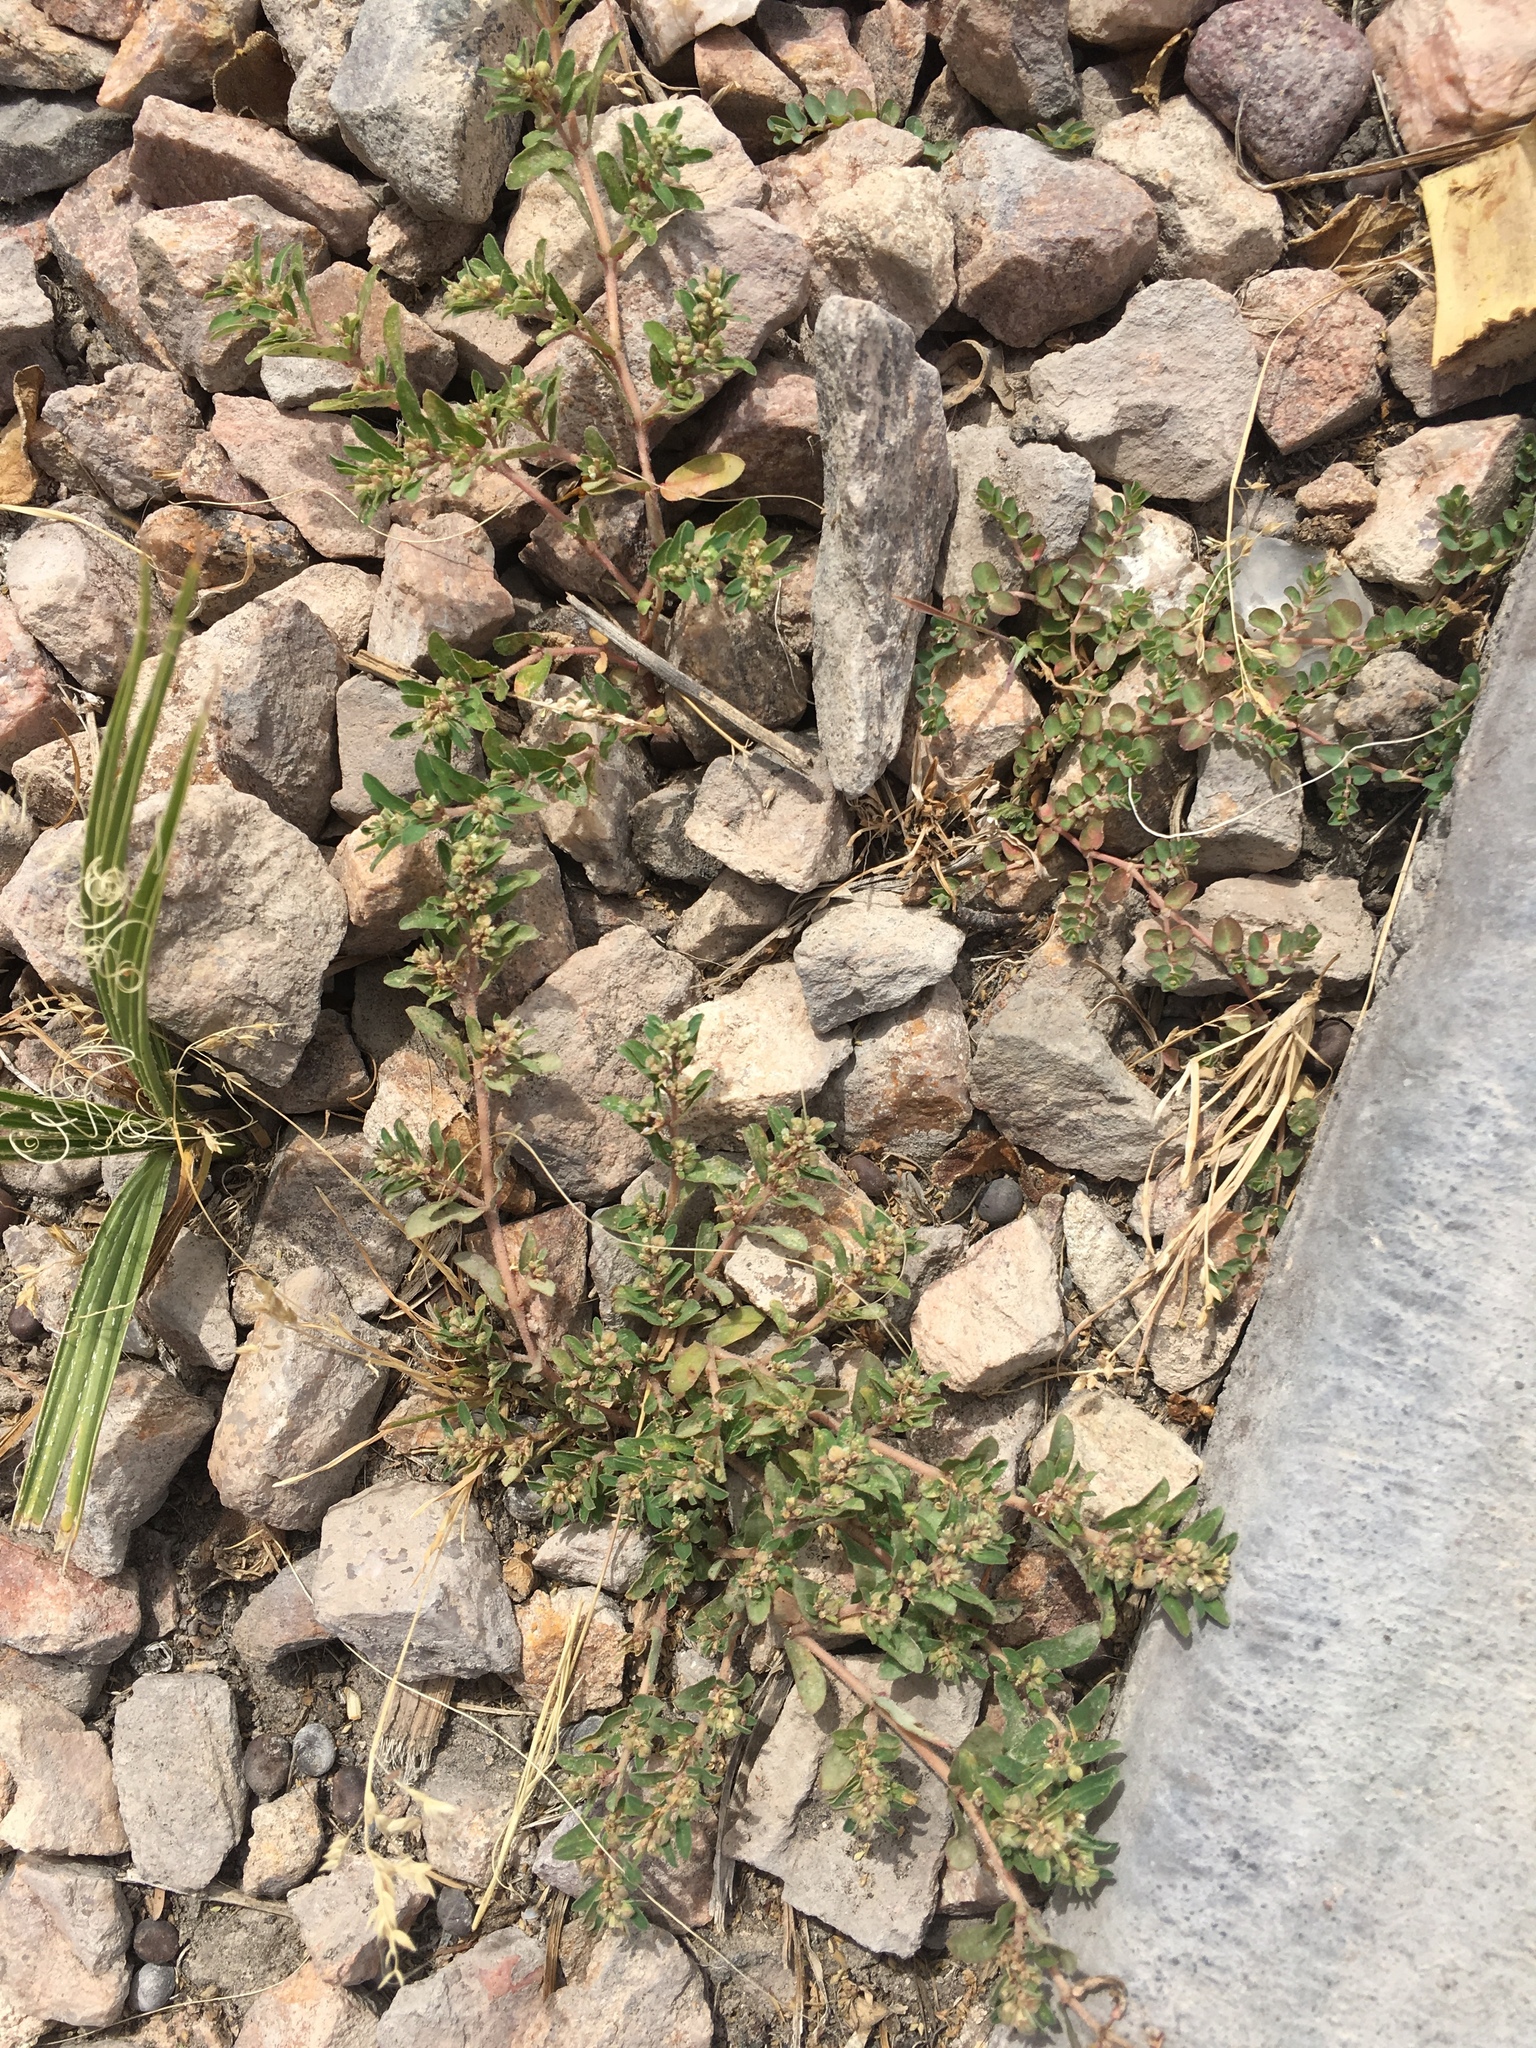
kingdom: Plantae
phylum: Tracheophyta
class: Magnoliopsida
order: Malpighiales
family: Euphorbiaceae
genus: Euphorbia
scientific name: Euphorbia maculata
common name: Spotted spurge
